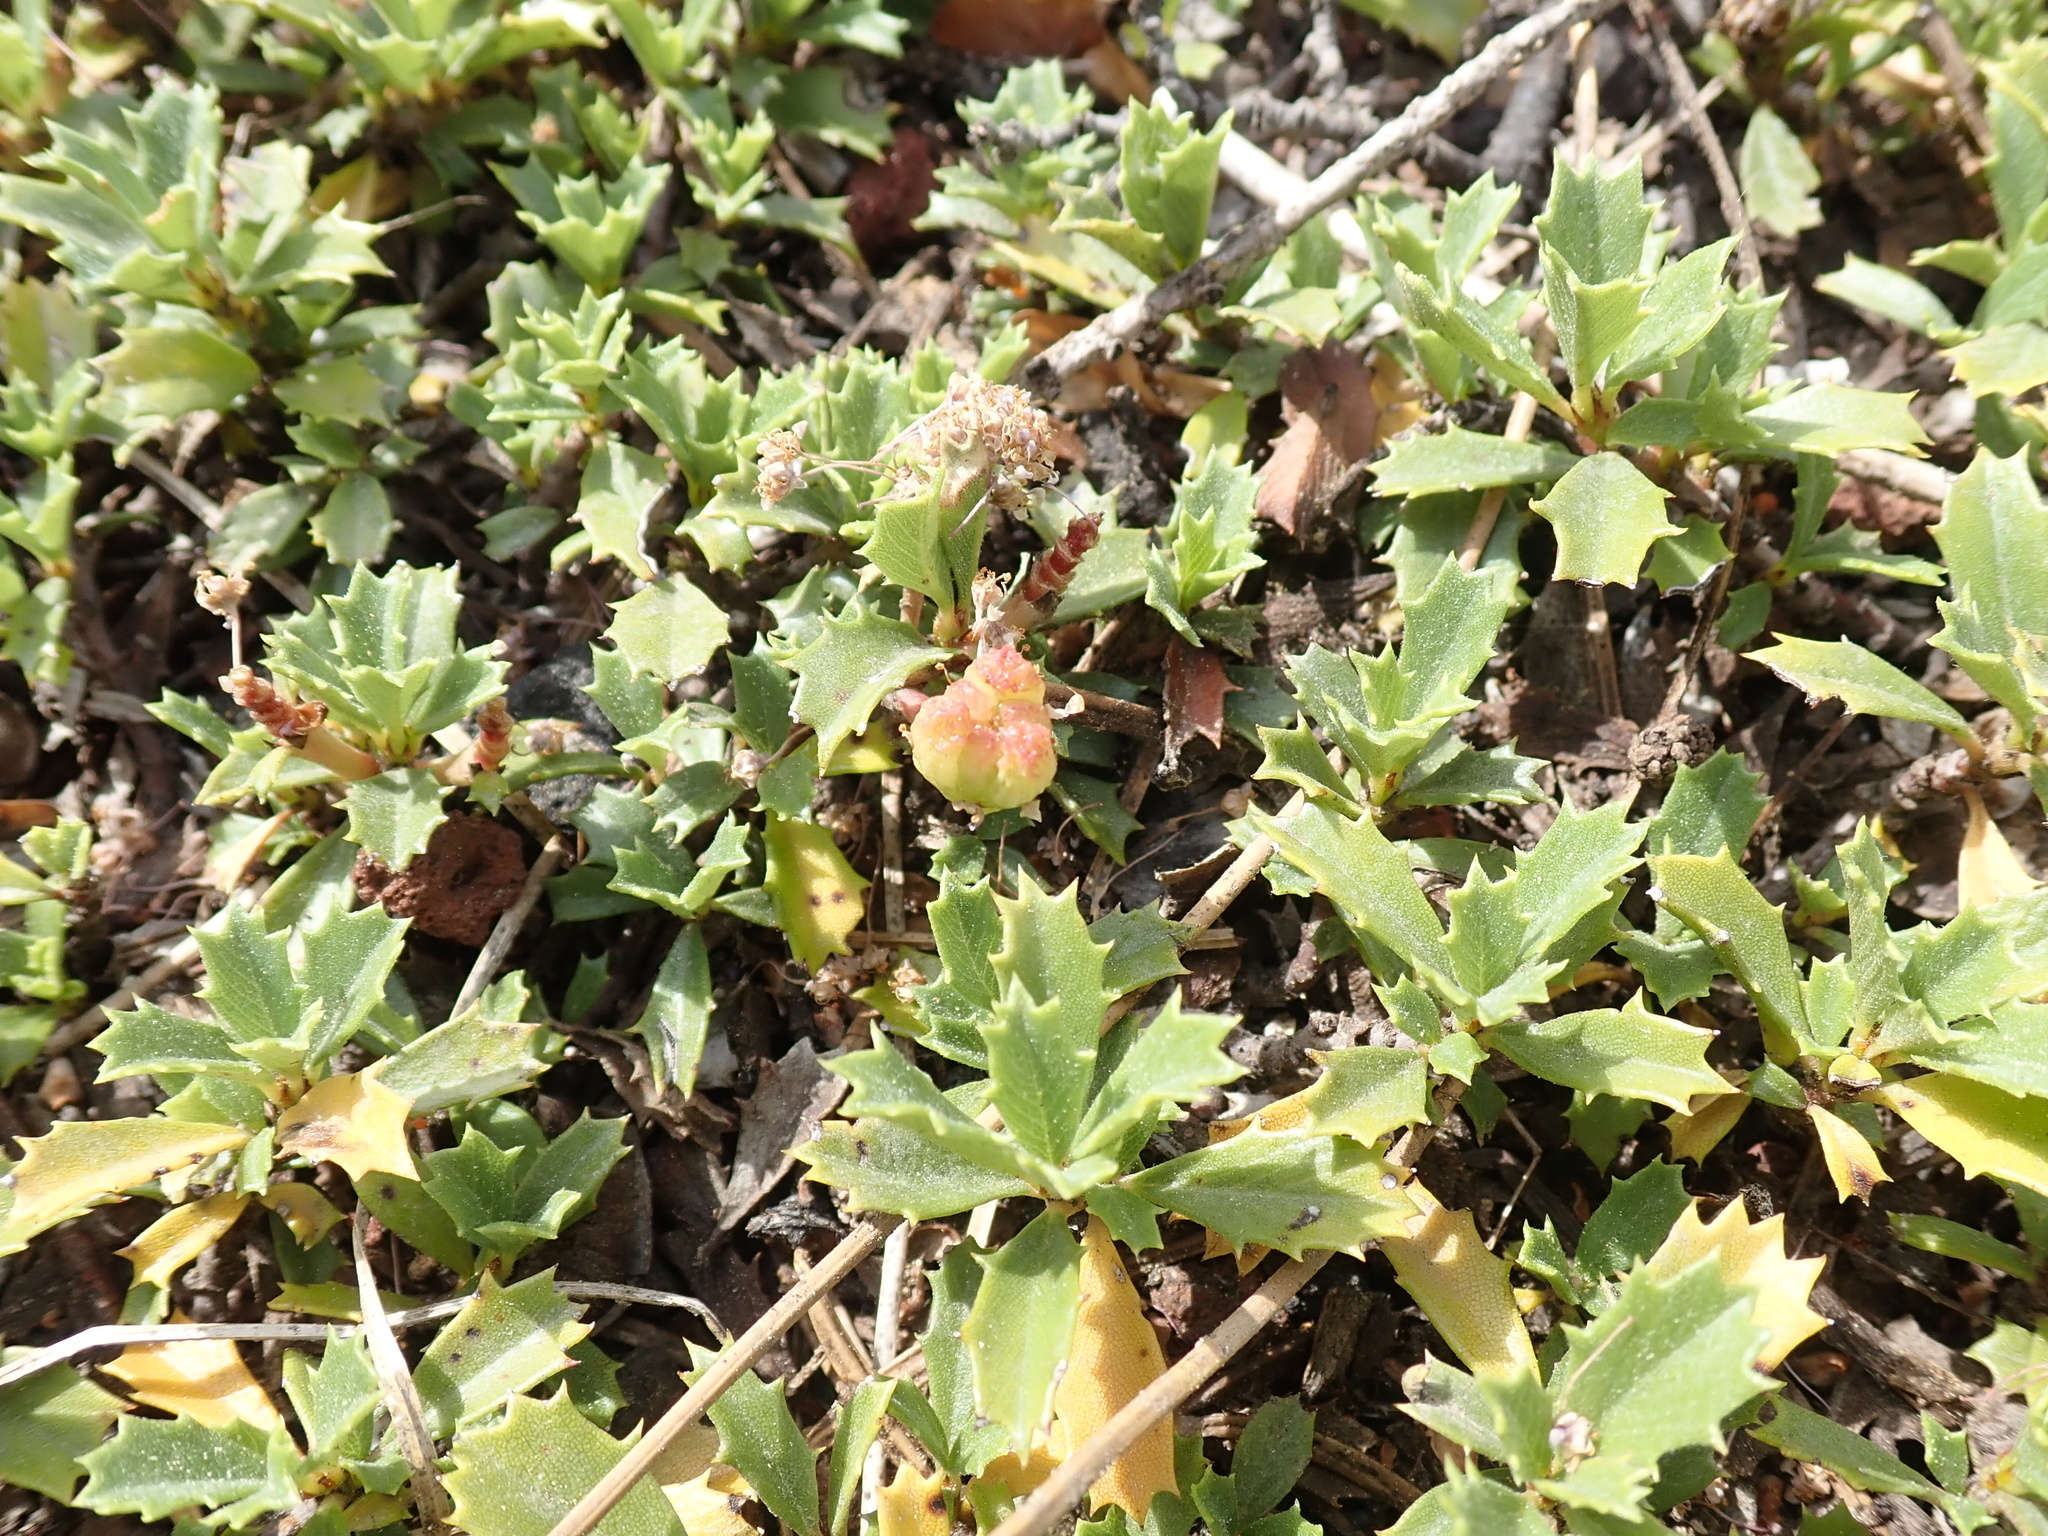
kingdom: Plantae
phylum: Tracheophyta
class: Magnoliopsida
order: Rosales
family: Rhamnaceae
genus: Ceanothus
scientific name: Ceanothus prostratus
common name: Mahala-mat
